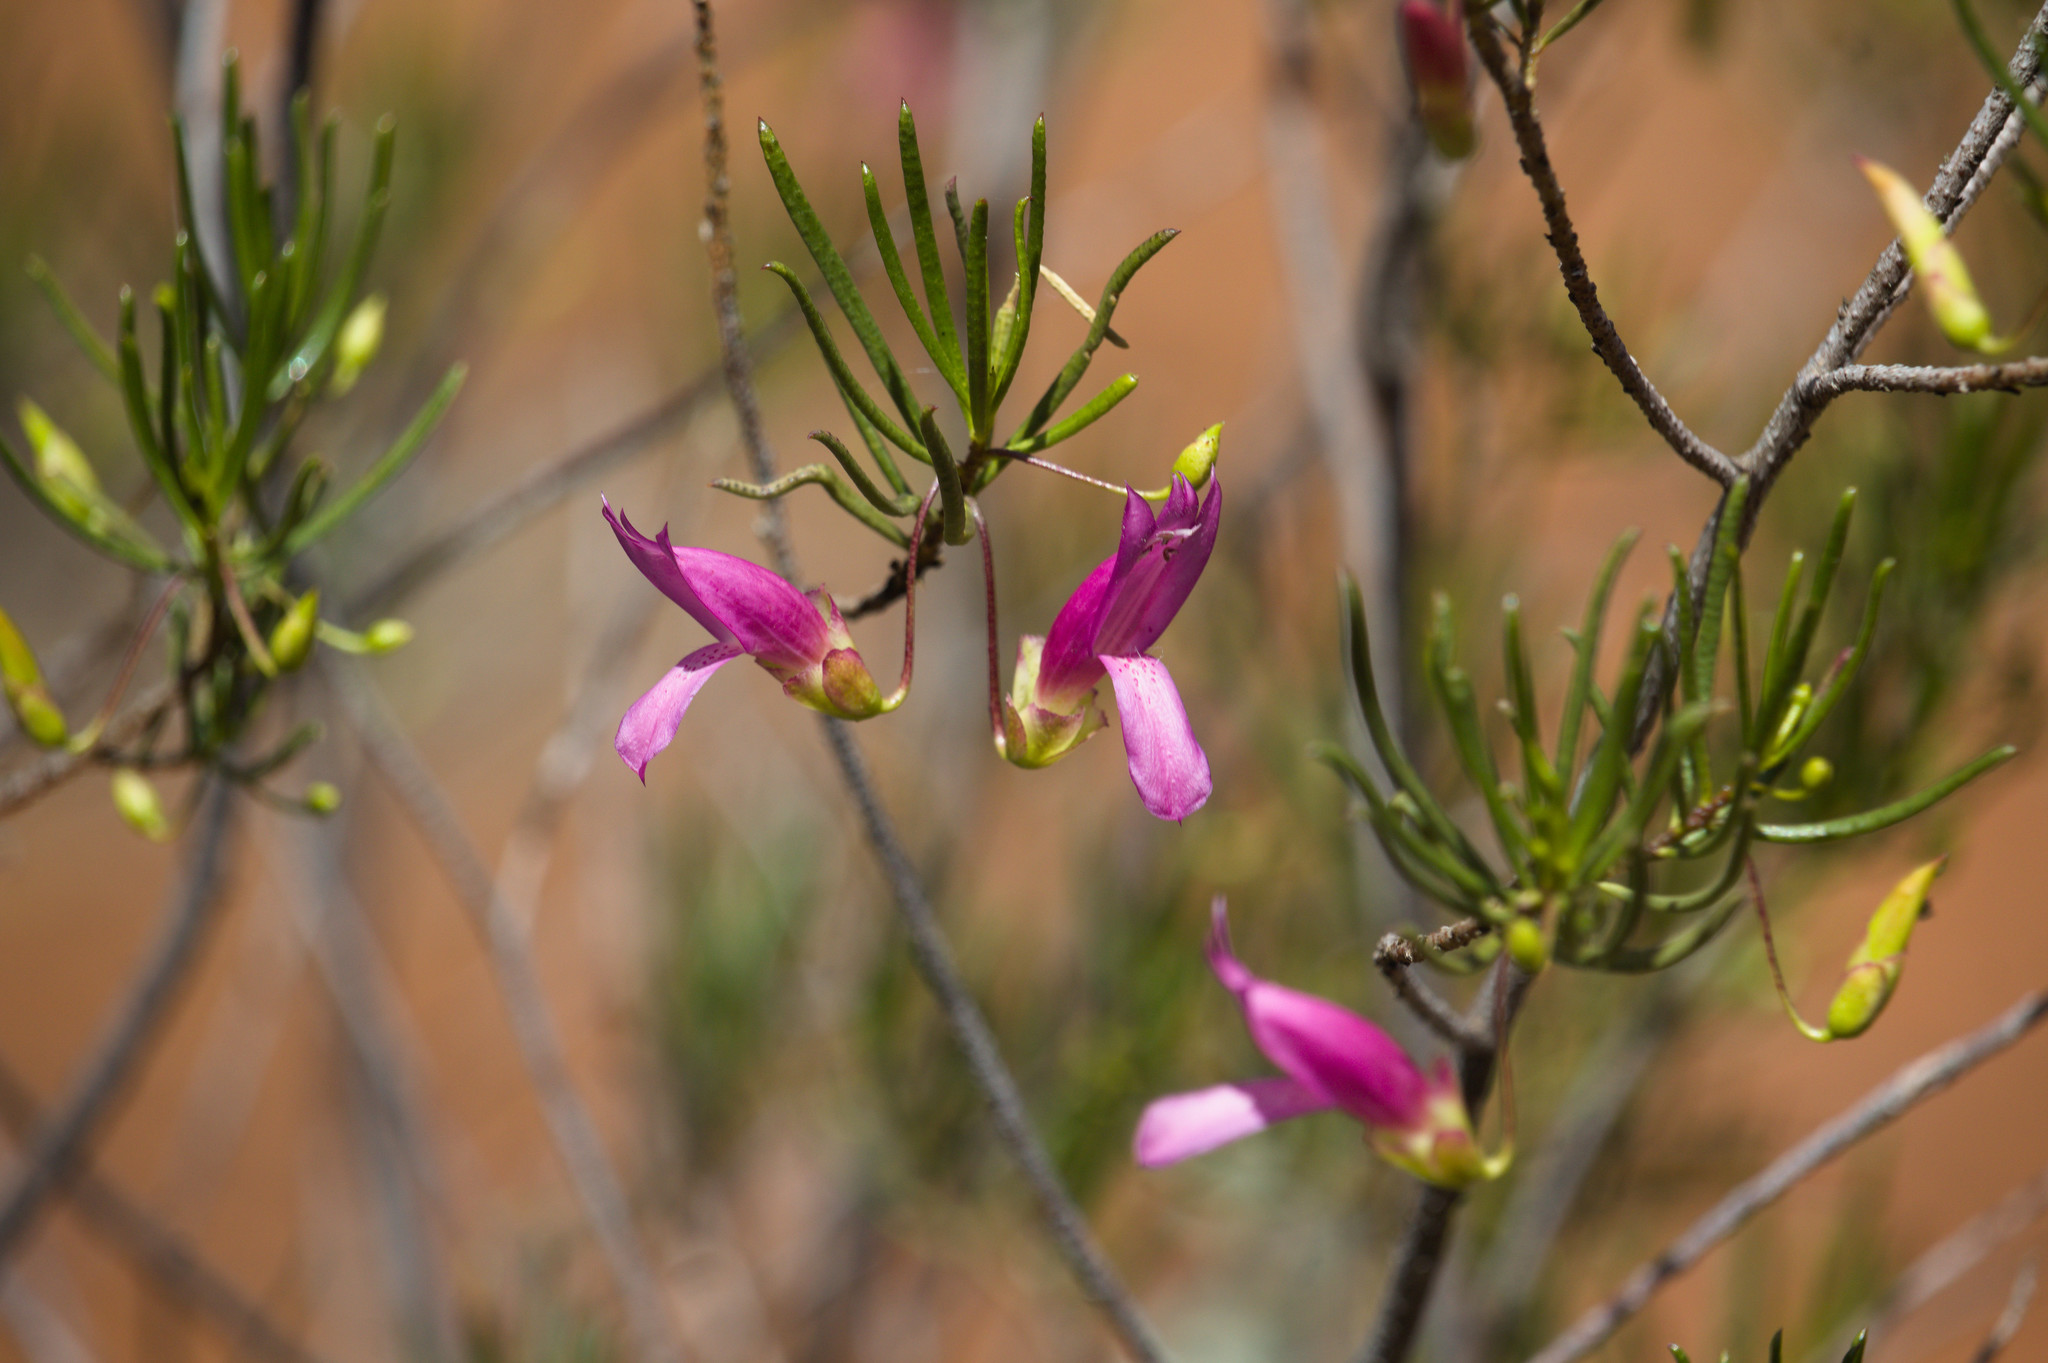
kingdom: Plantae
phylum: Tracheophyta
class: Magnoliopsida
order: Lamiales
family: Scrophulariaceae
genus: Eremophila
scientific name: Eremophila alternifolia
